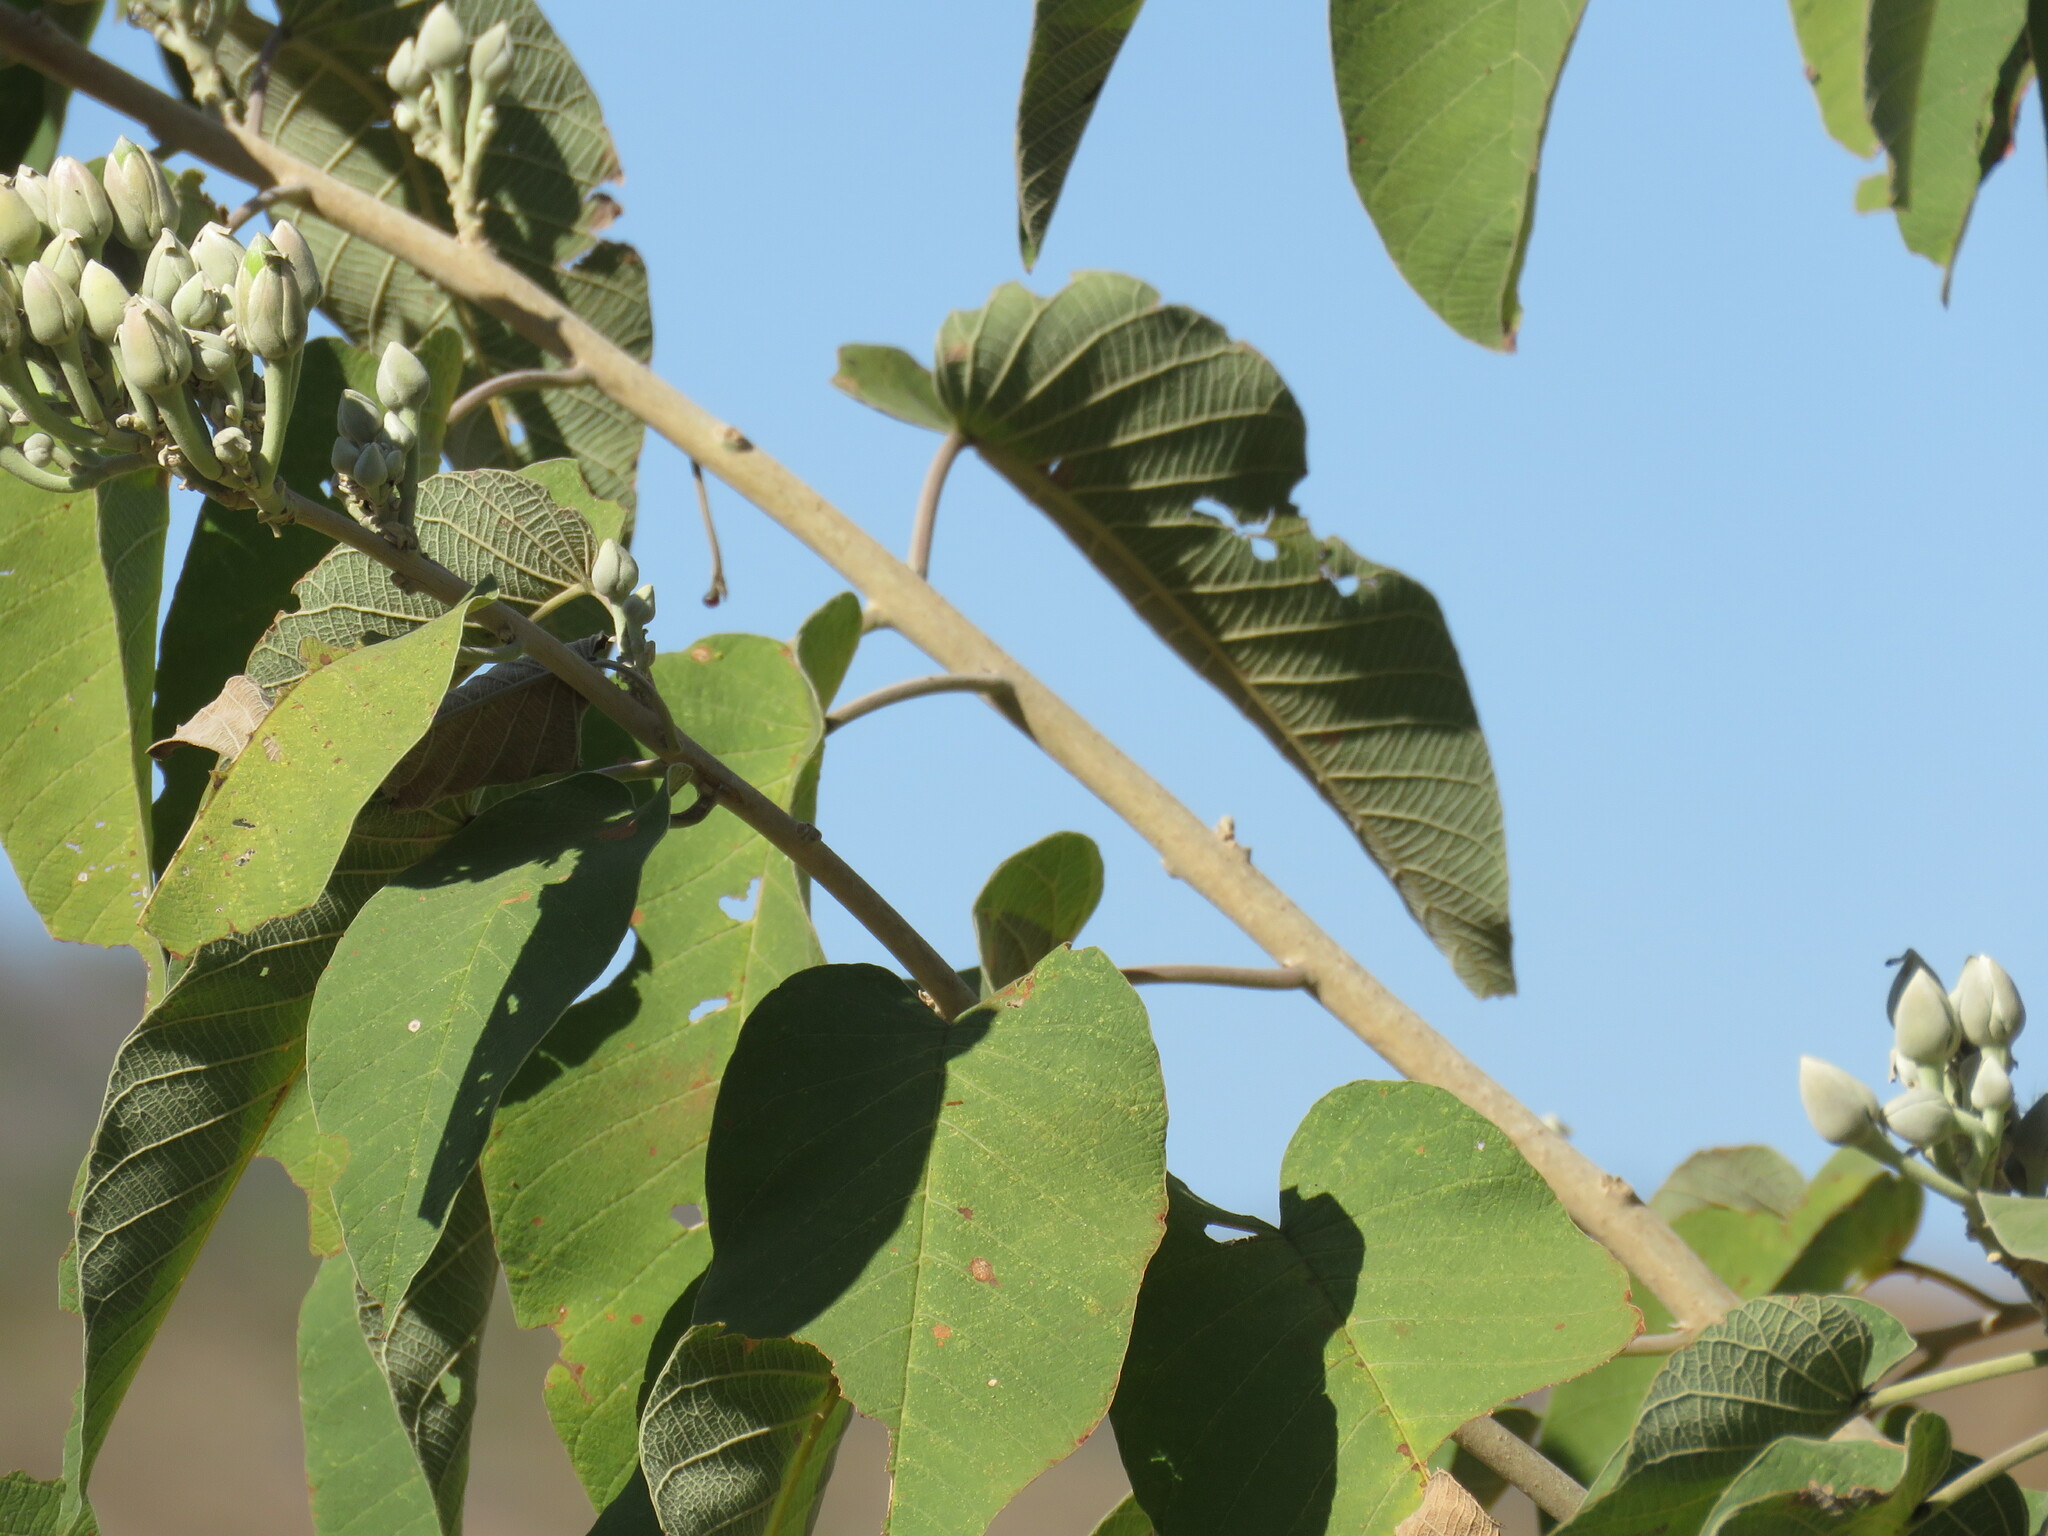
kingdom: Plantae
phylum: Tracheophyta
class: Magnoliopsida
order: Solanales
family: Convolvulaceae
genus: Ipomoea
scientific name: Ipomoea arborescens
